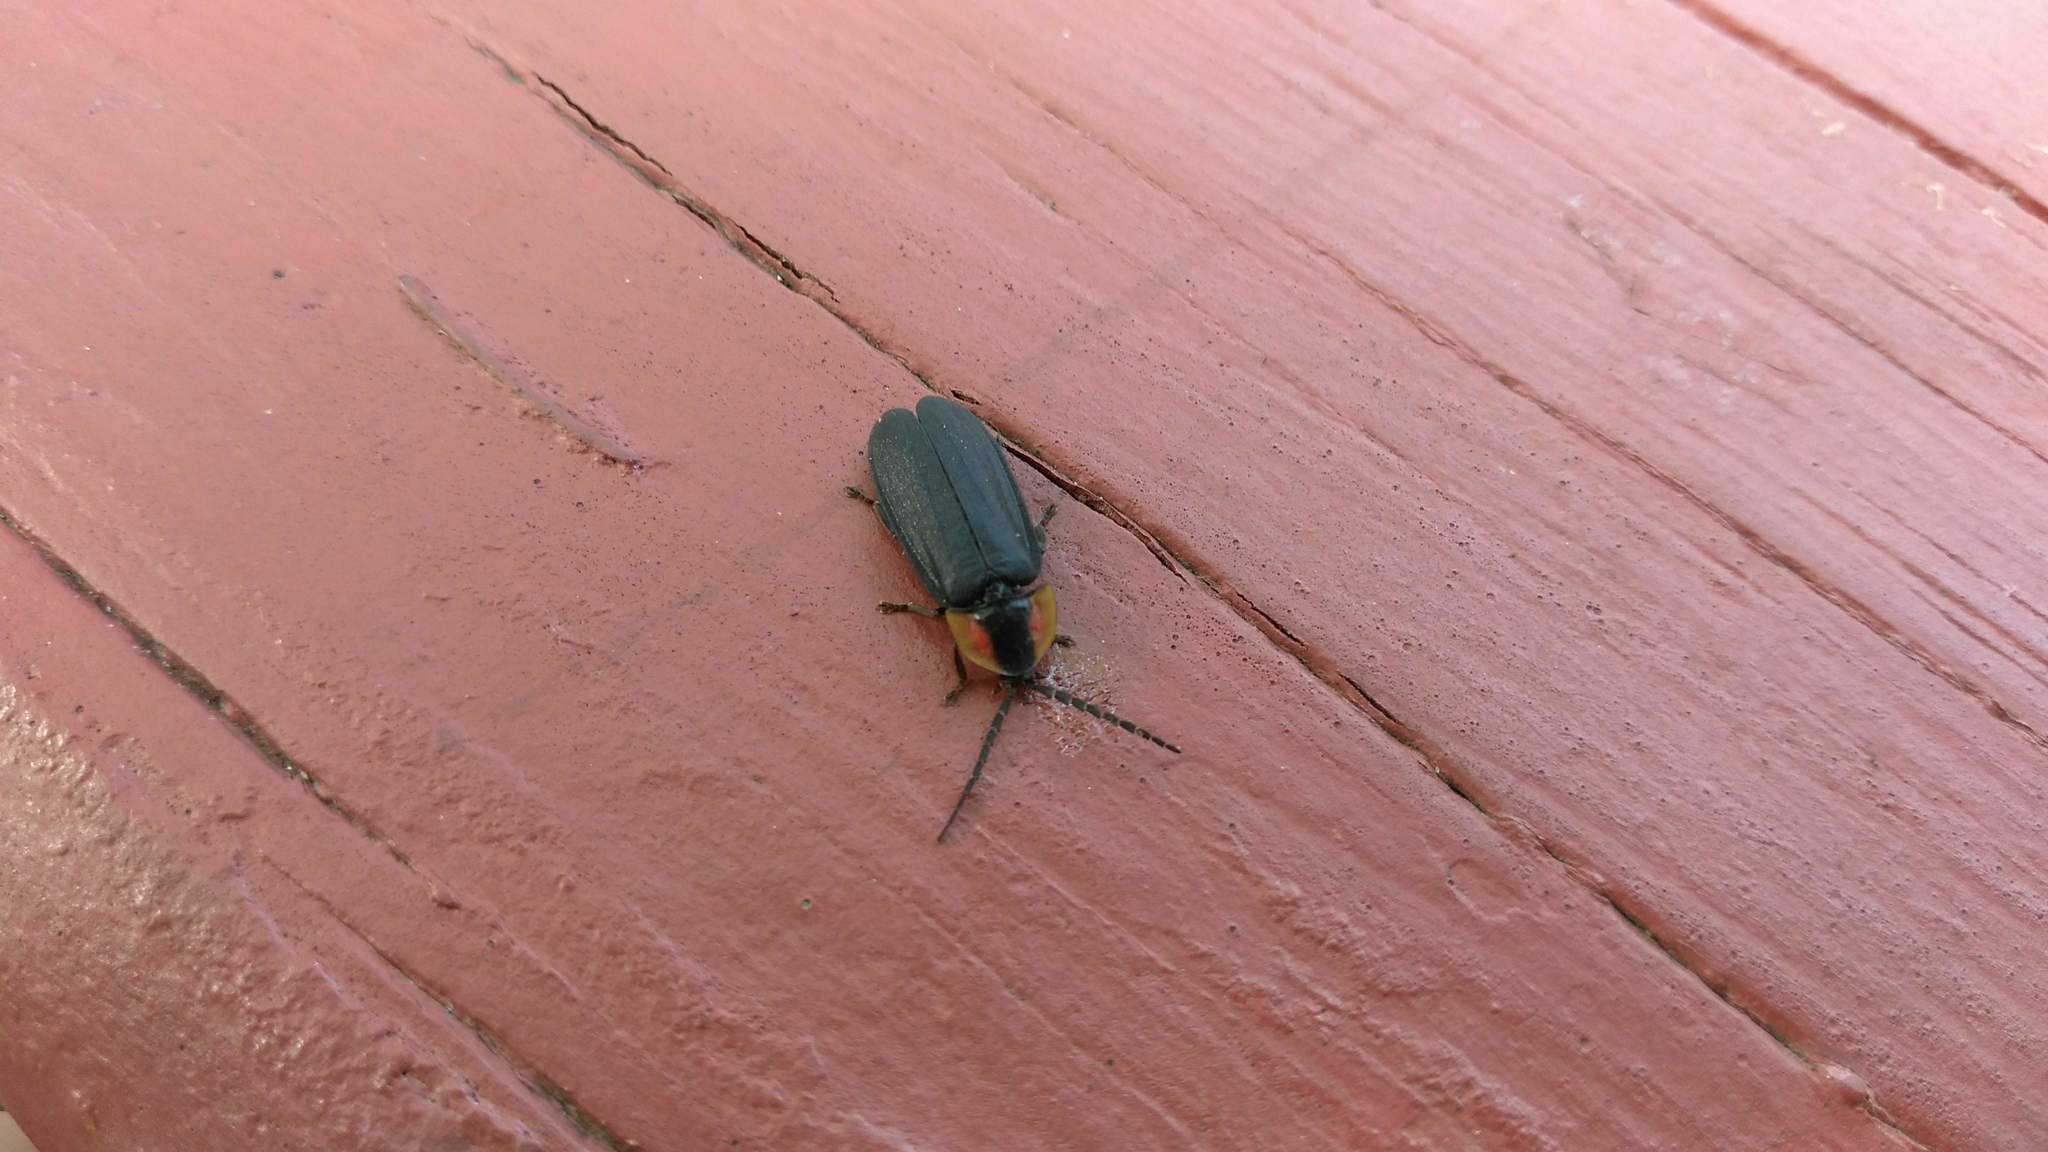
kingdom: Animalia
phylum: Arthropoda
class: Insecta
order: Coleoptera
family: Lampyridae
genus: Lucidota
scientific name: Lucidota atra
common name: Black firefly
